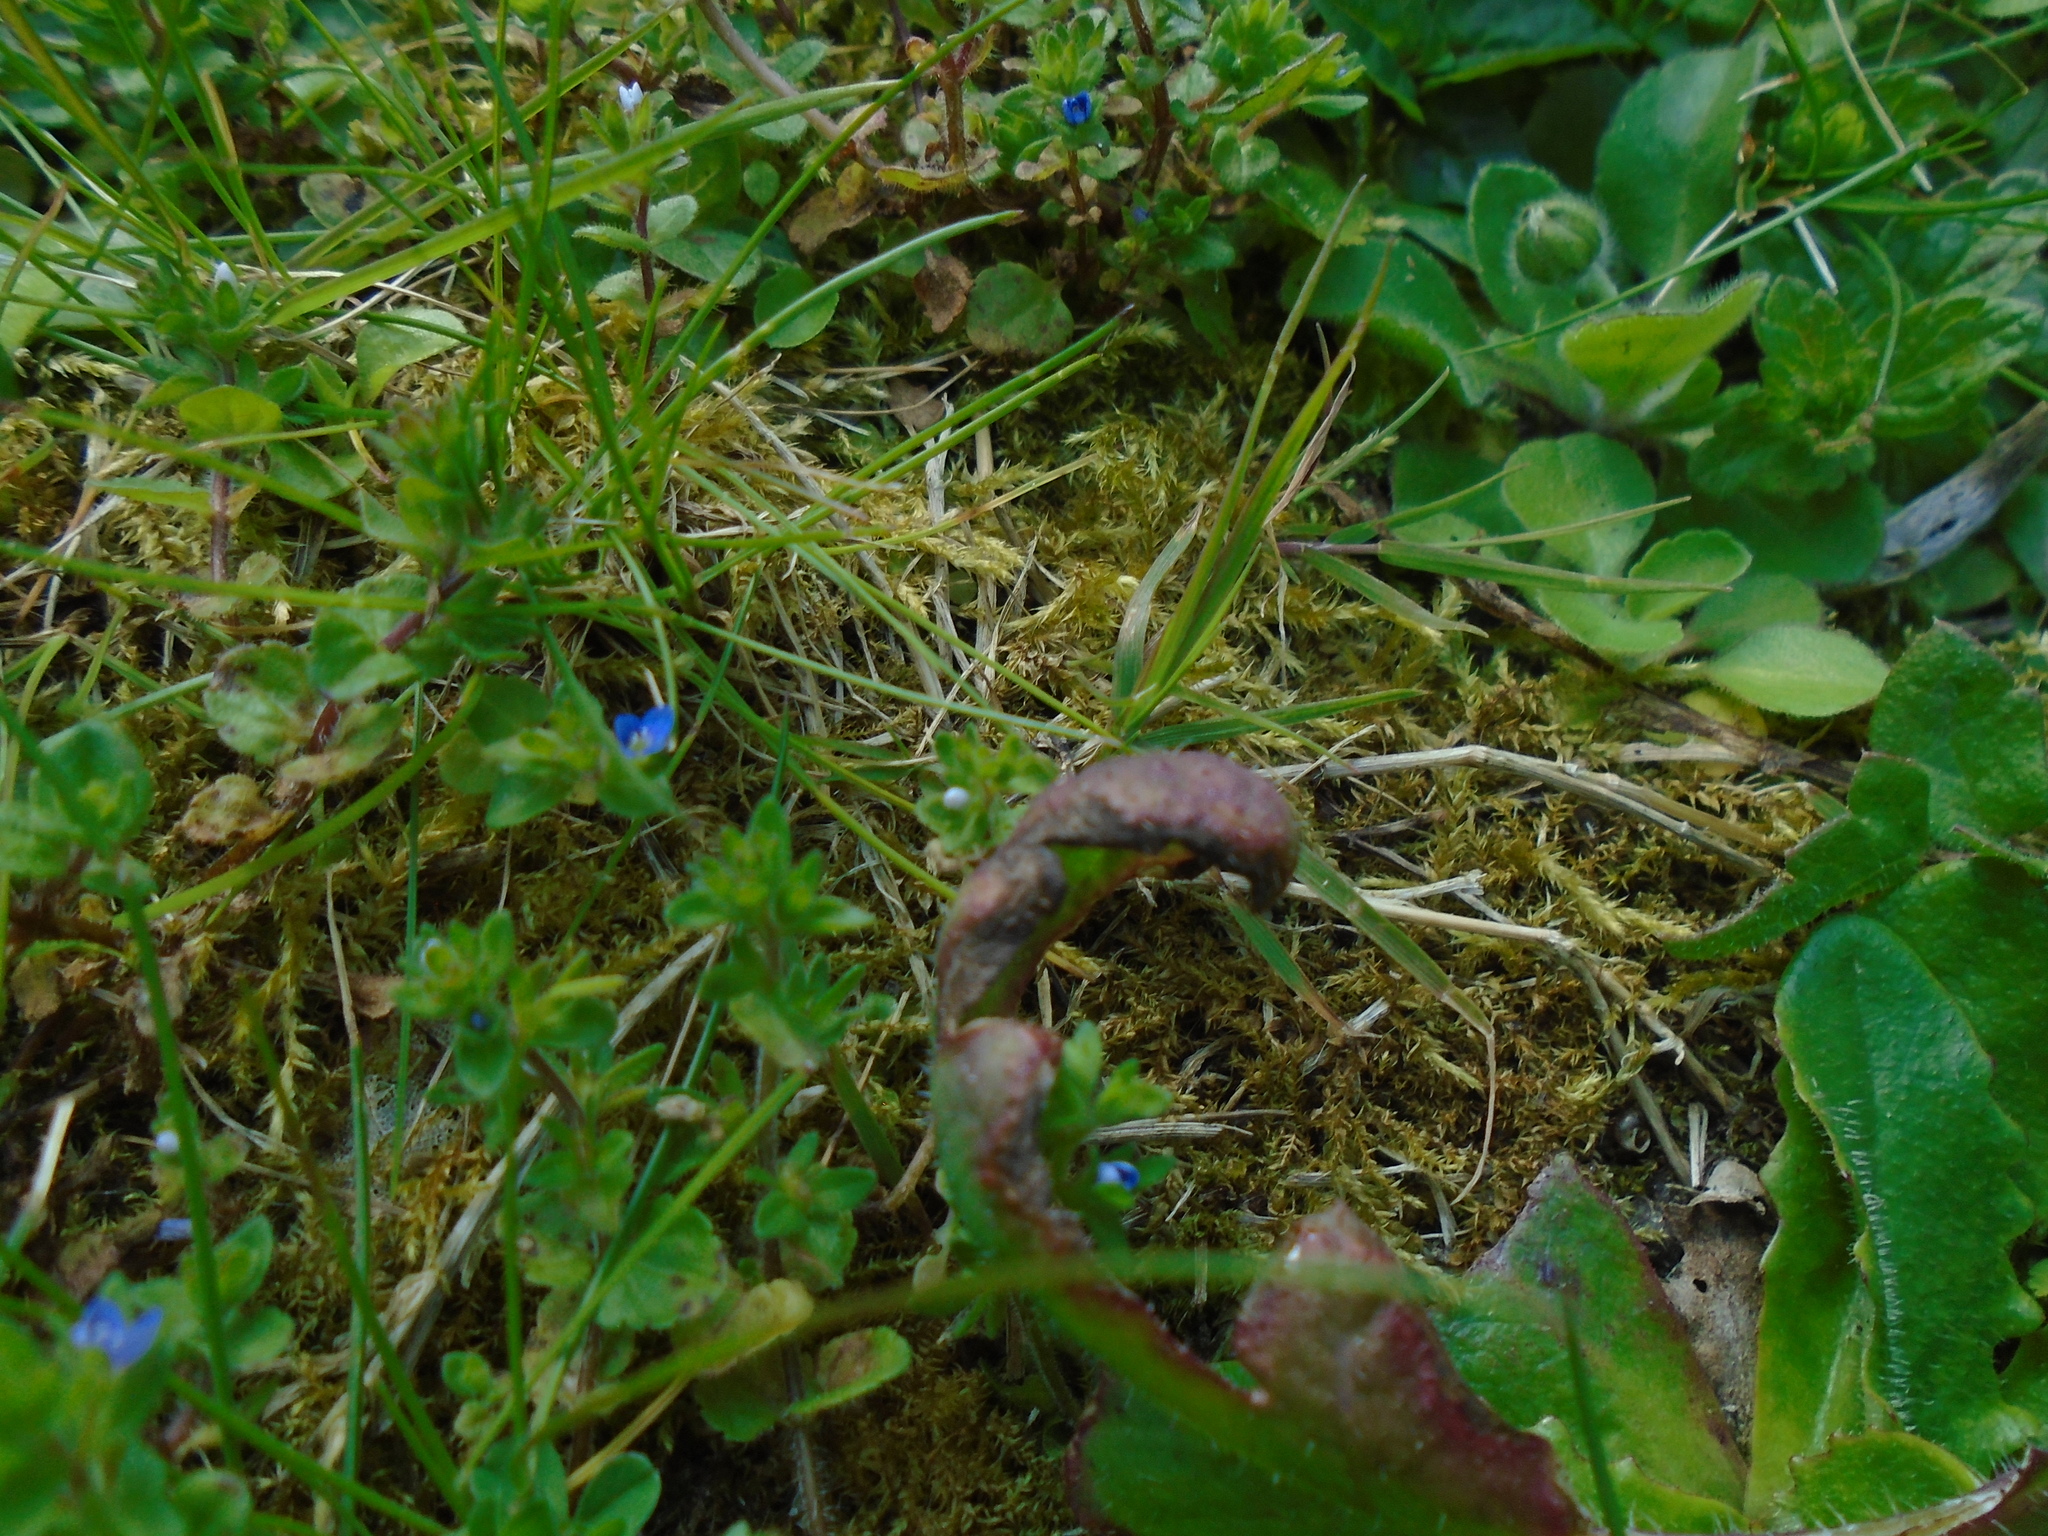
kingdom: Plantae
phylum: Tracheophyta
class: Magnoliopsida
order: Lamiales
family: Plantaginaceae
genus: Veronica
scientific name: Veronica arvensis
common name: Corn speedwell
